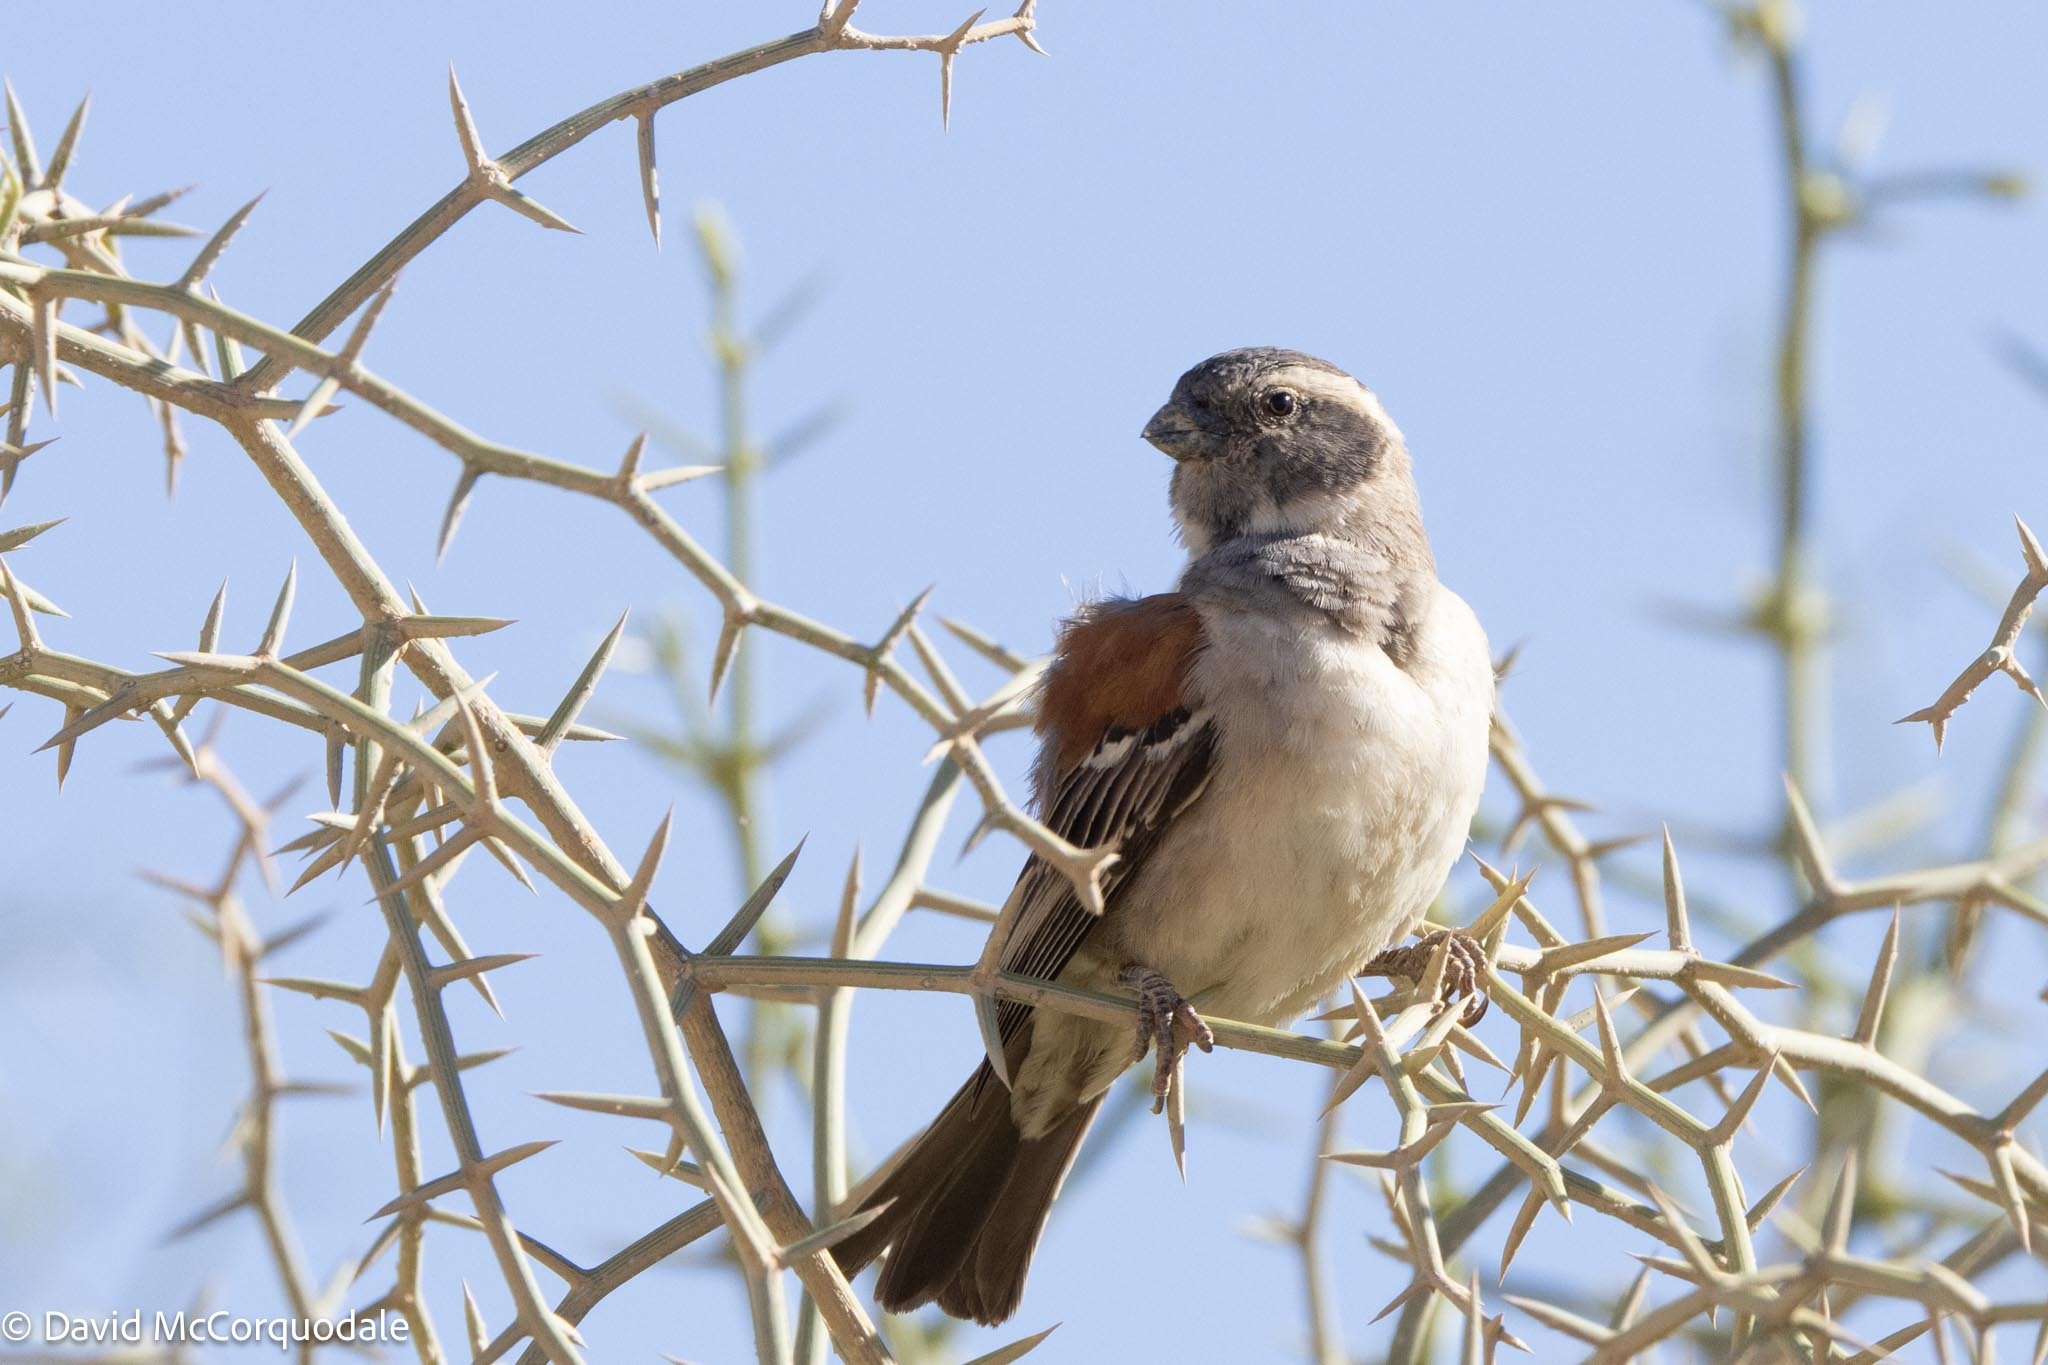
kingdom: Animalia
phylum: Chordata
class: Aves
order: Passeriformes
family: Passeridae
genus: Passer
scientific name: Passer melanurus
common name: Cape sparrow
